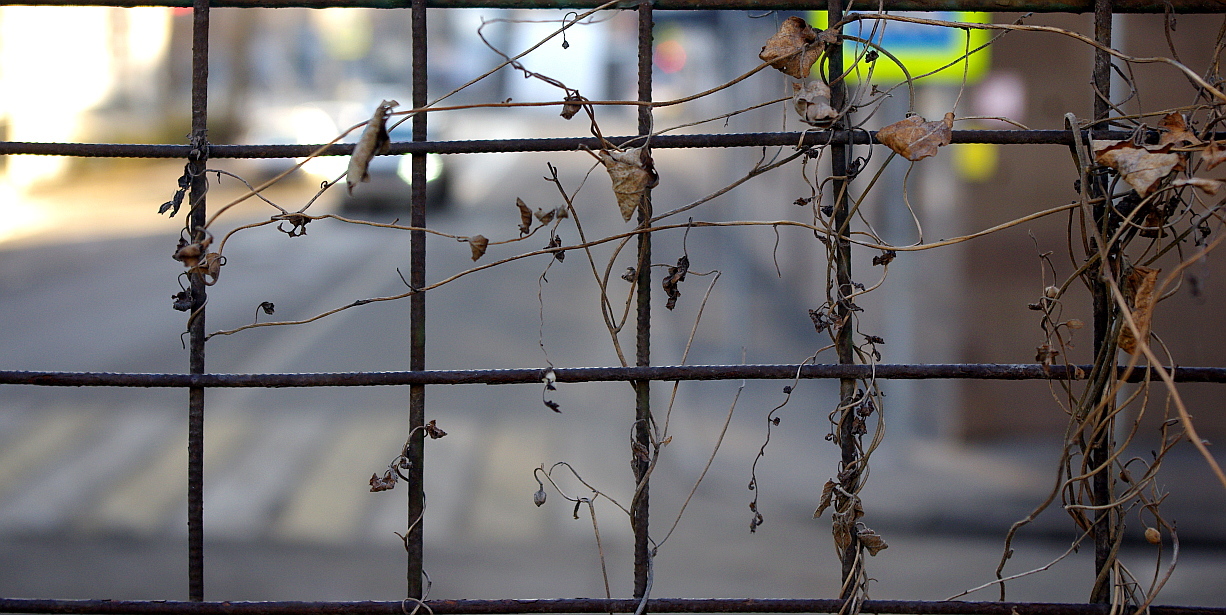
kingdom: Plantae
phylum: Tracheophyta
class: Magnoliopsida
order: Solanales
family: Convolvulaceae
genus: Convolvulus
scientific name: Convolvulus arvensis
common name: Field bindweed
